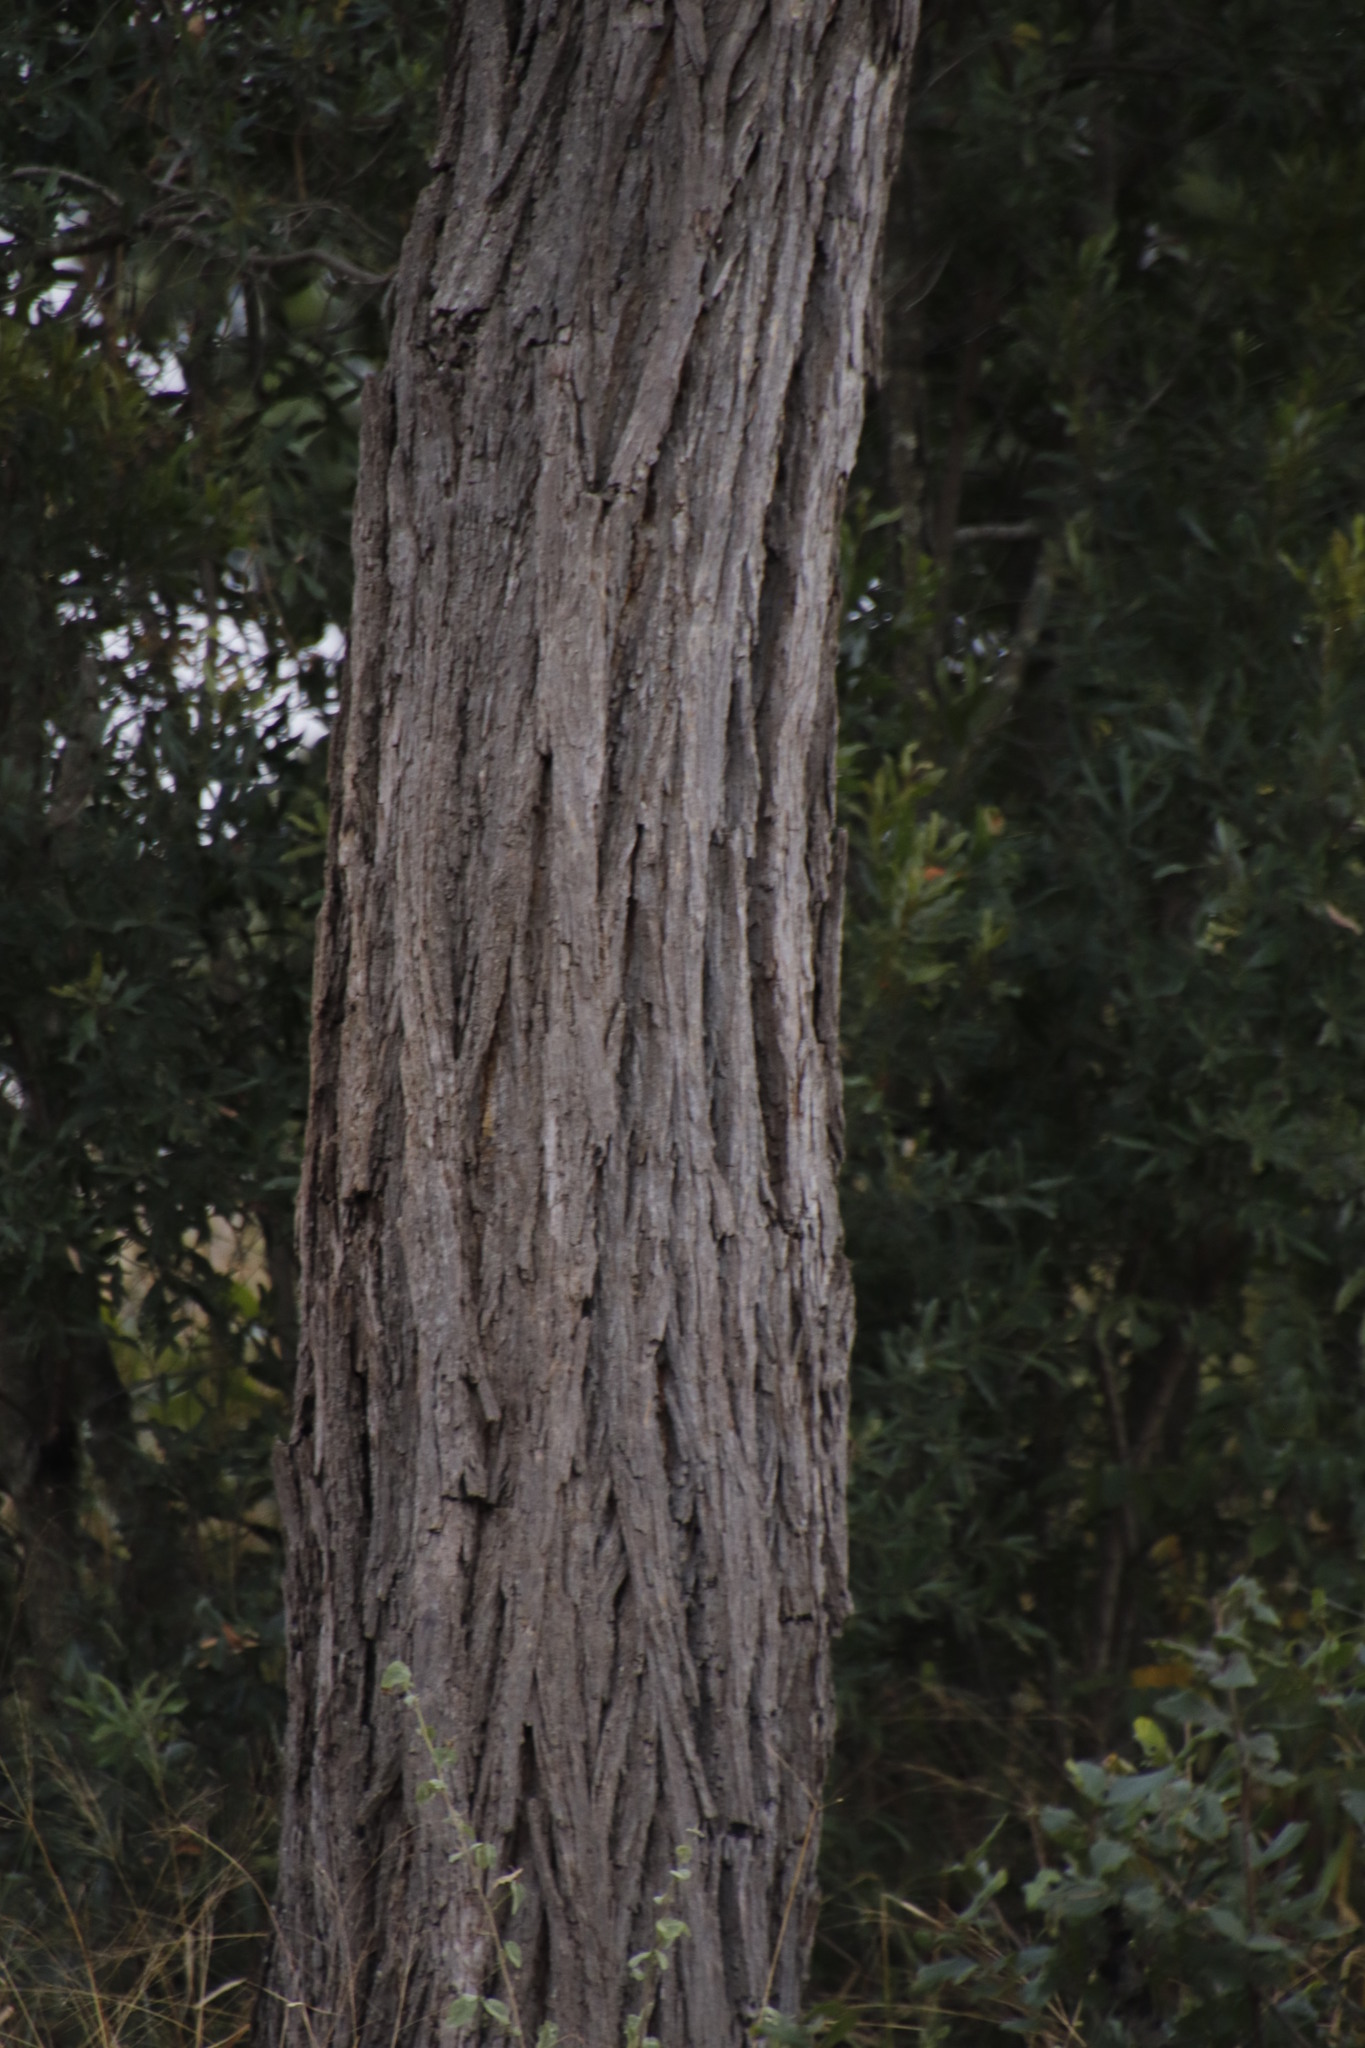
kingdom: Plantae
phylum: Tracheophyta
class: Magnoliopsida
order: Fabales
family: Fabaceae
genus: Senegalia
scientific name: Senegalia nigrescens
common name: Knobthorn
